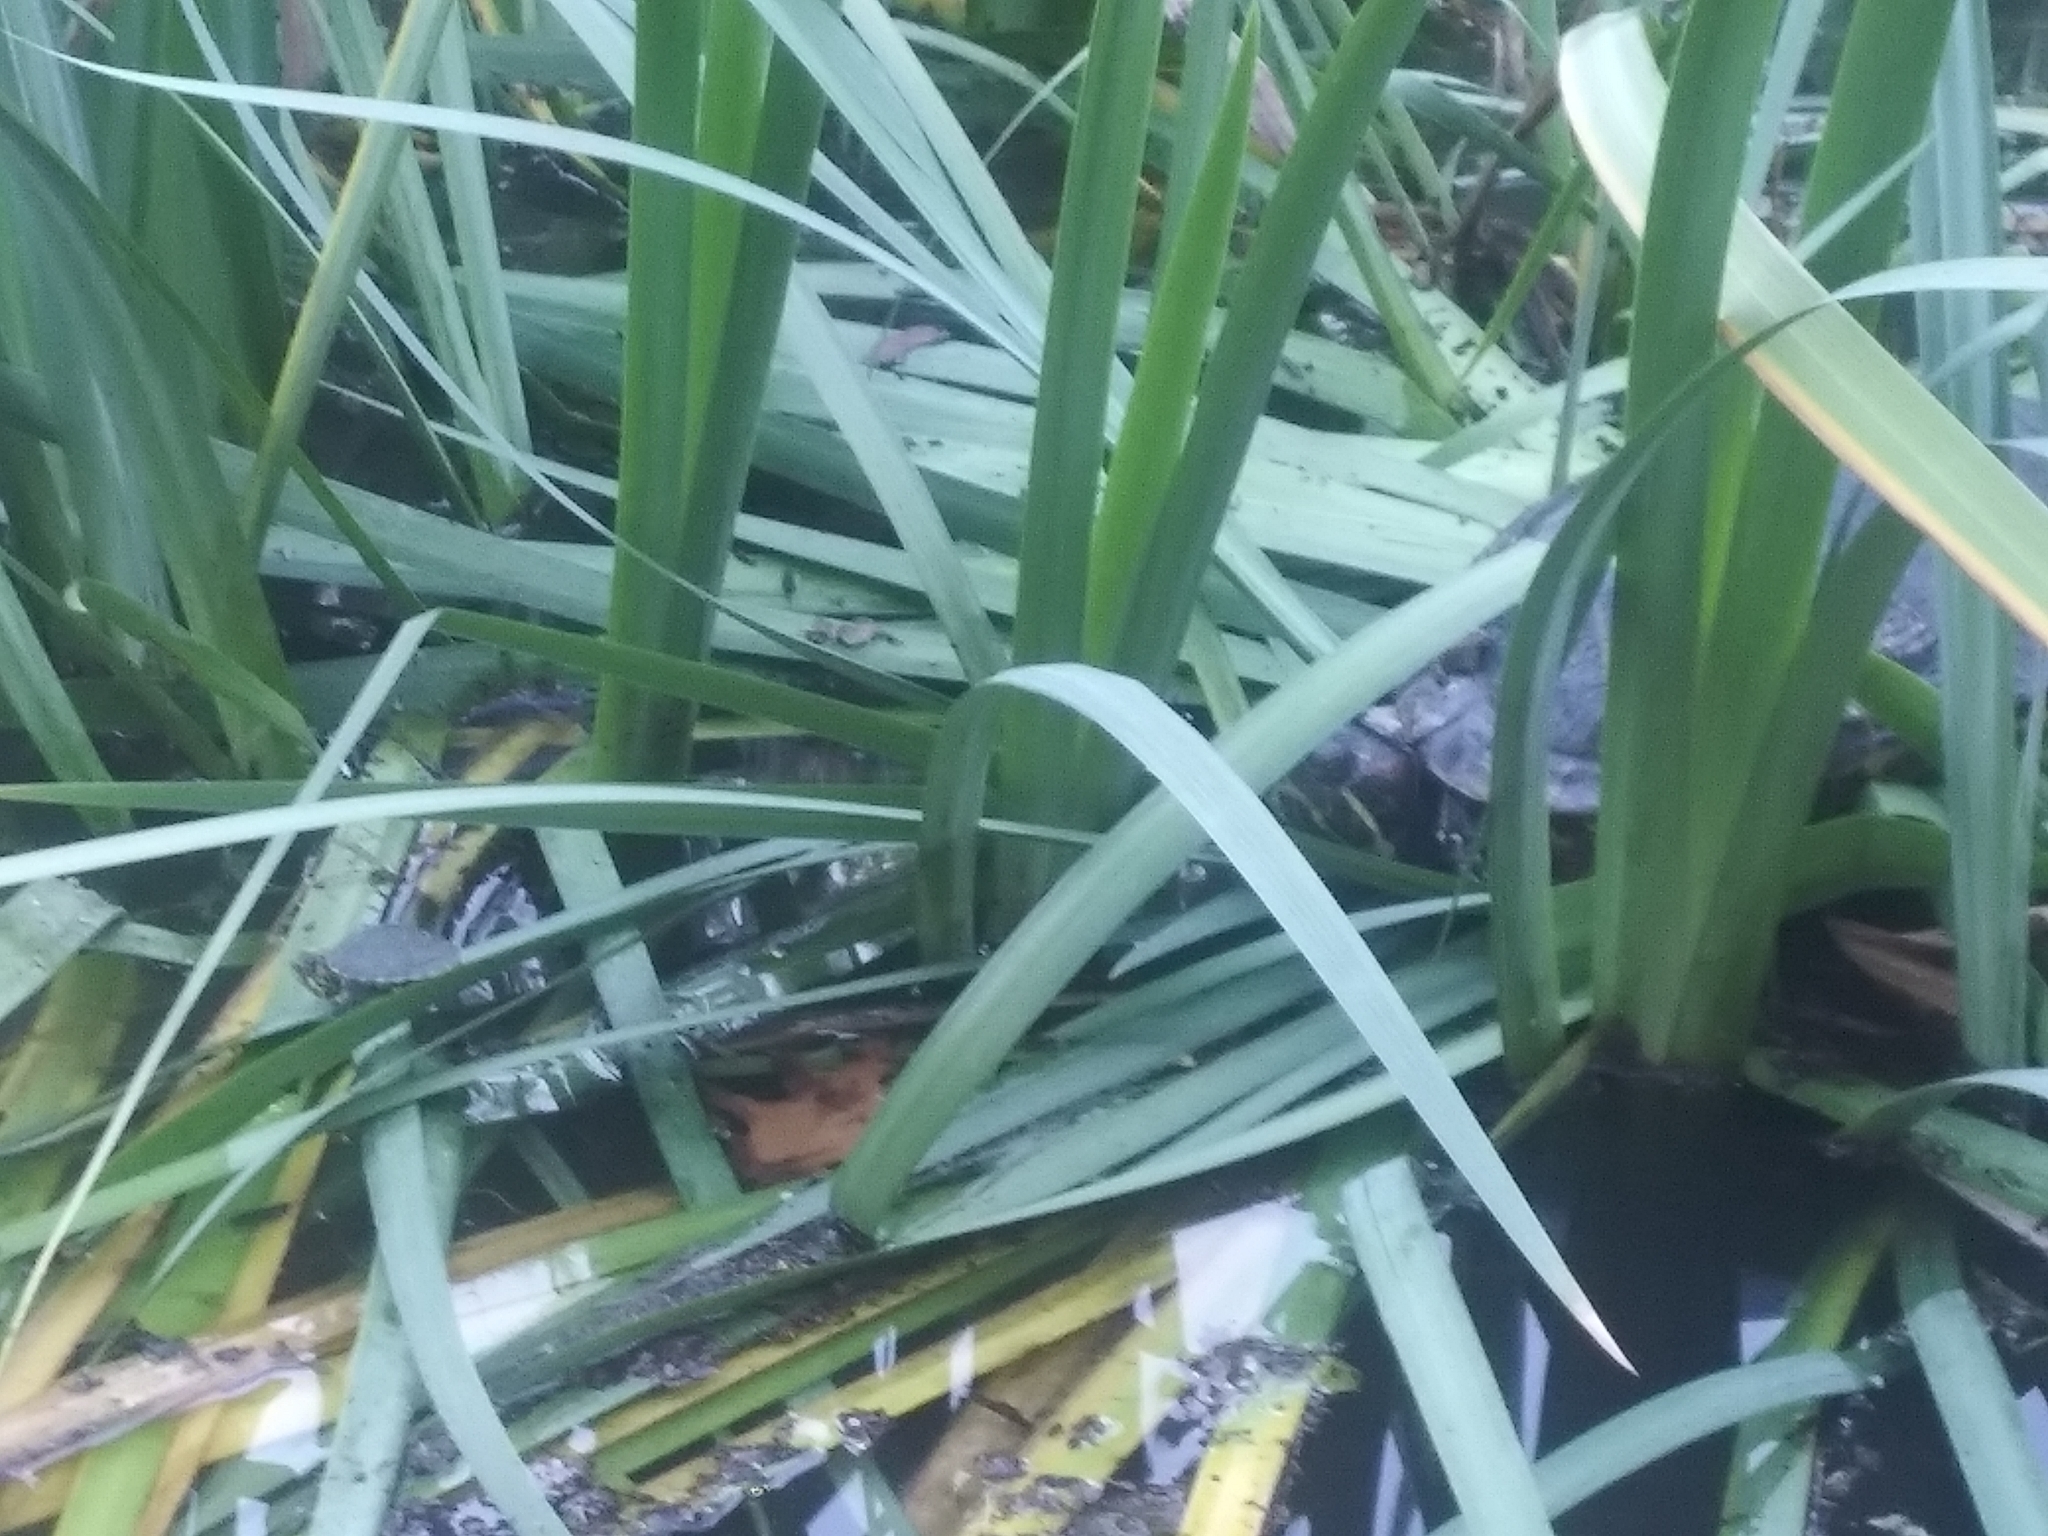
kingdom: Animalia
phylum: Chordata
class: Testudines
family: Emydidae
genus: Trachemys
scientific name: Trachemys scripta
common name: Slider
